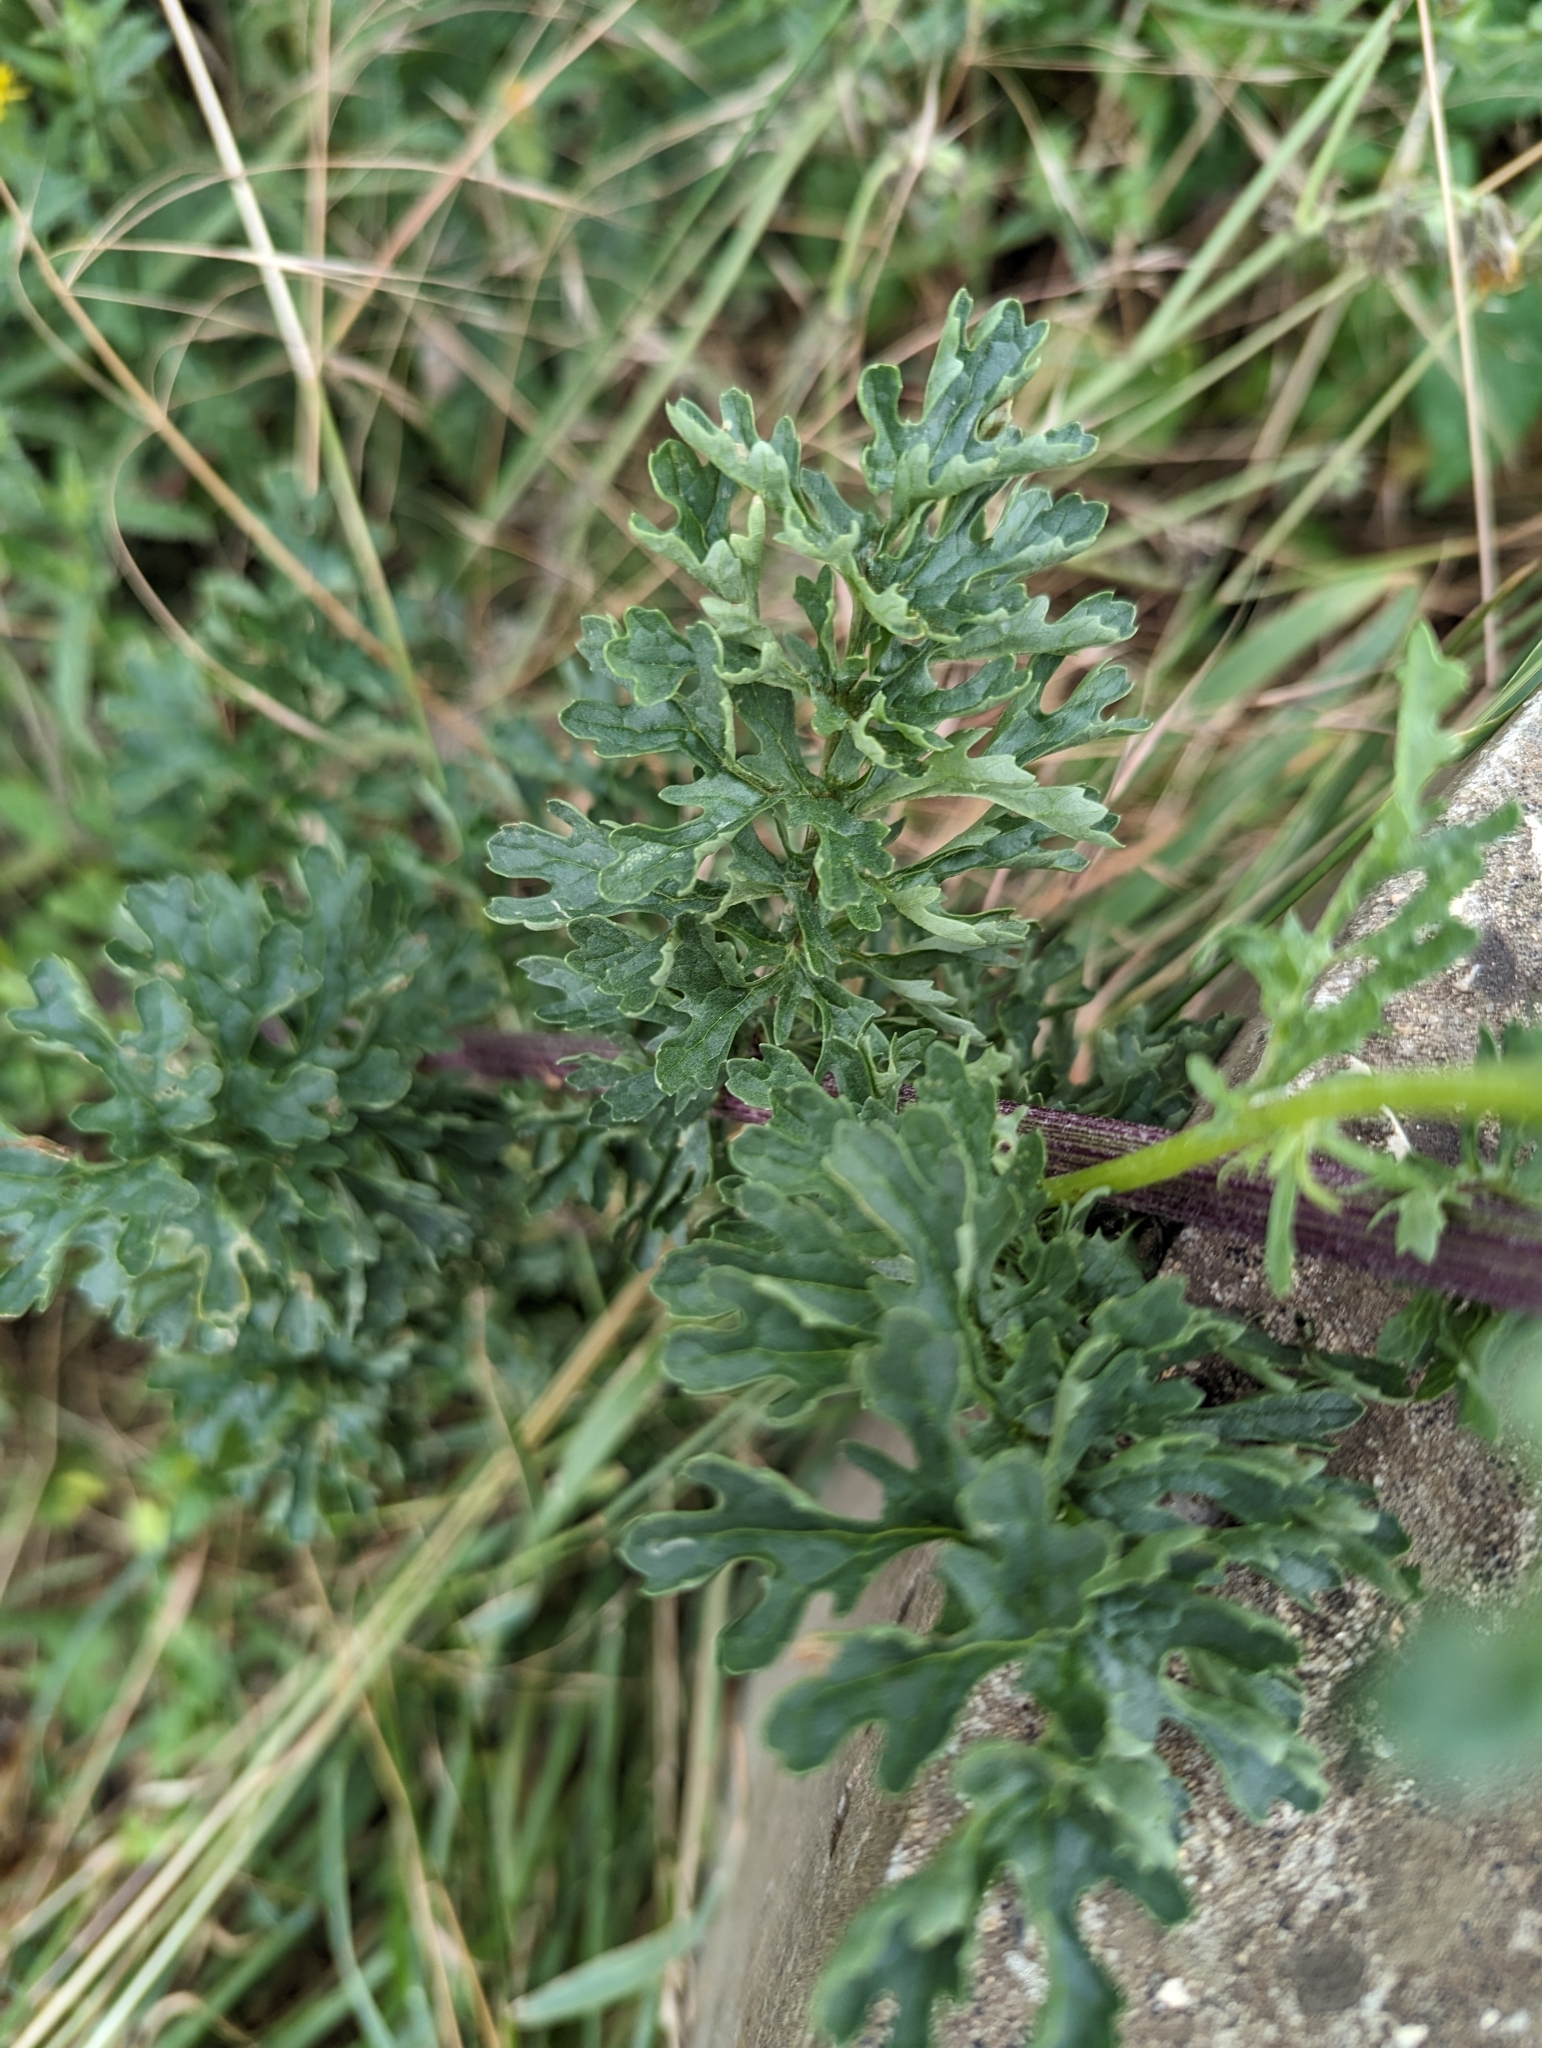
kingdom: Plantae
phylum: Tracheophyta
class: Magnoliopsida
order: Asterales
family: Asteraceae
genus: Jacobaea
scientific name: Jacobaea vulgaris
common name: Stinking willie
